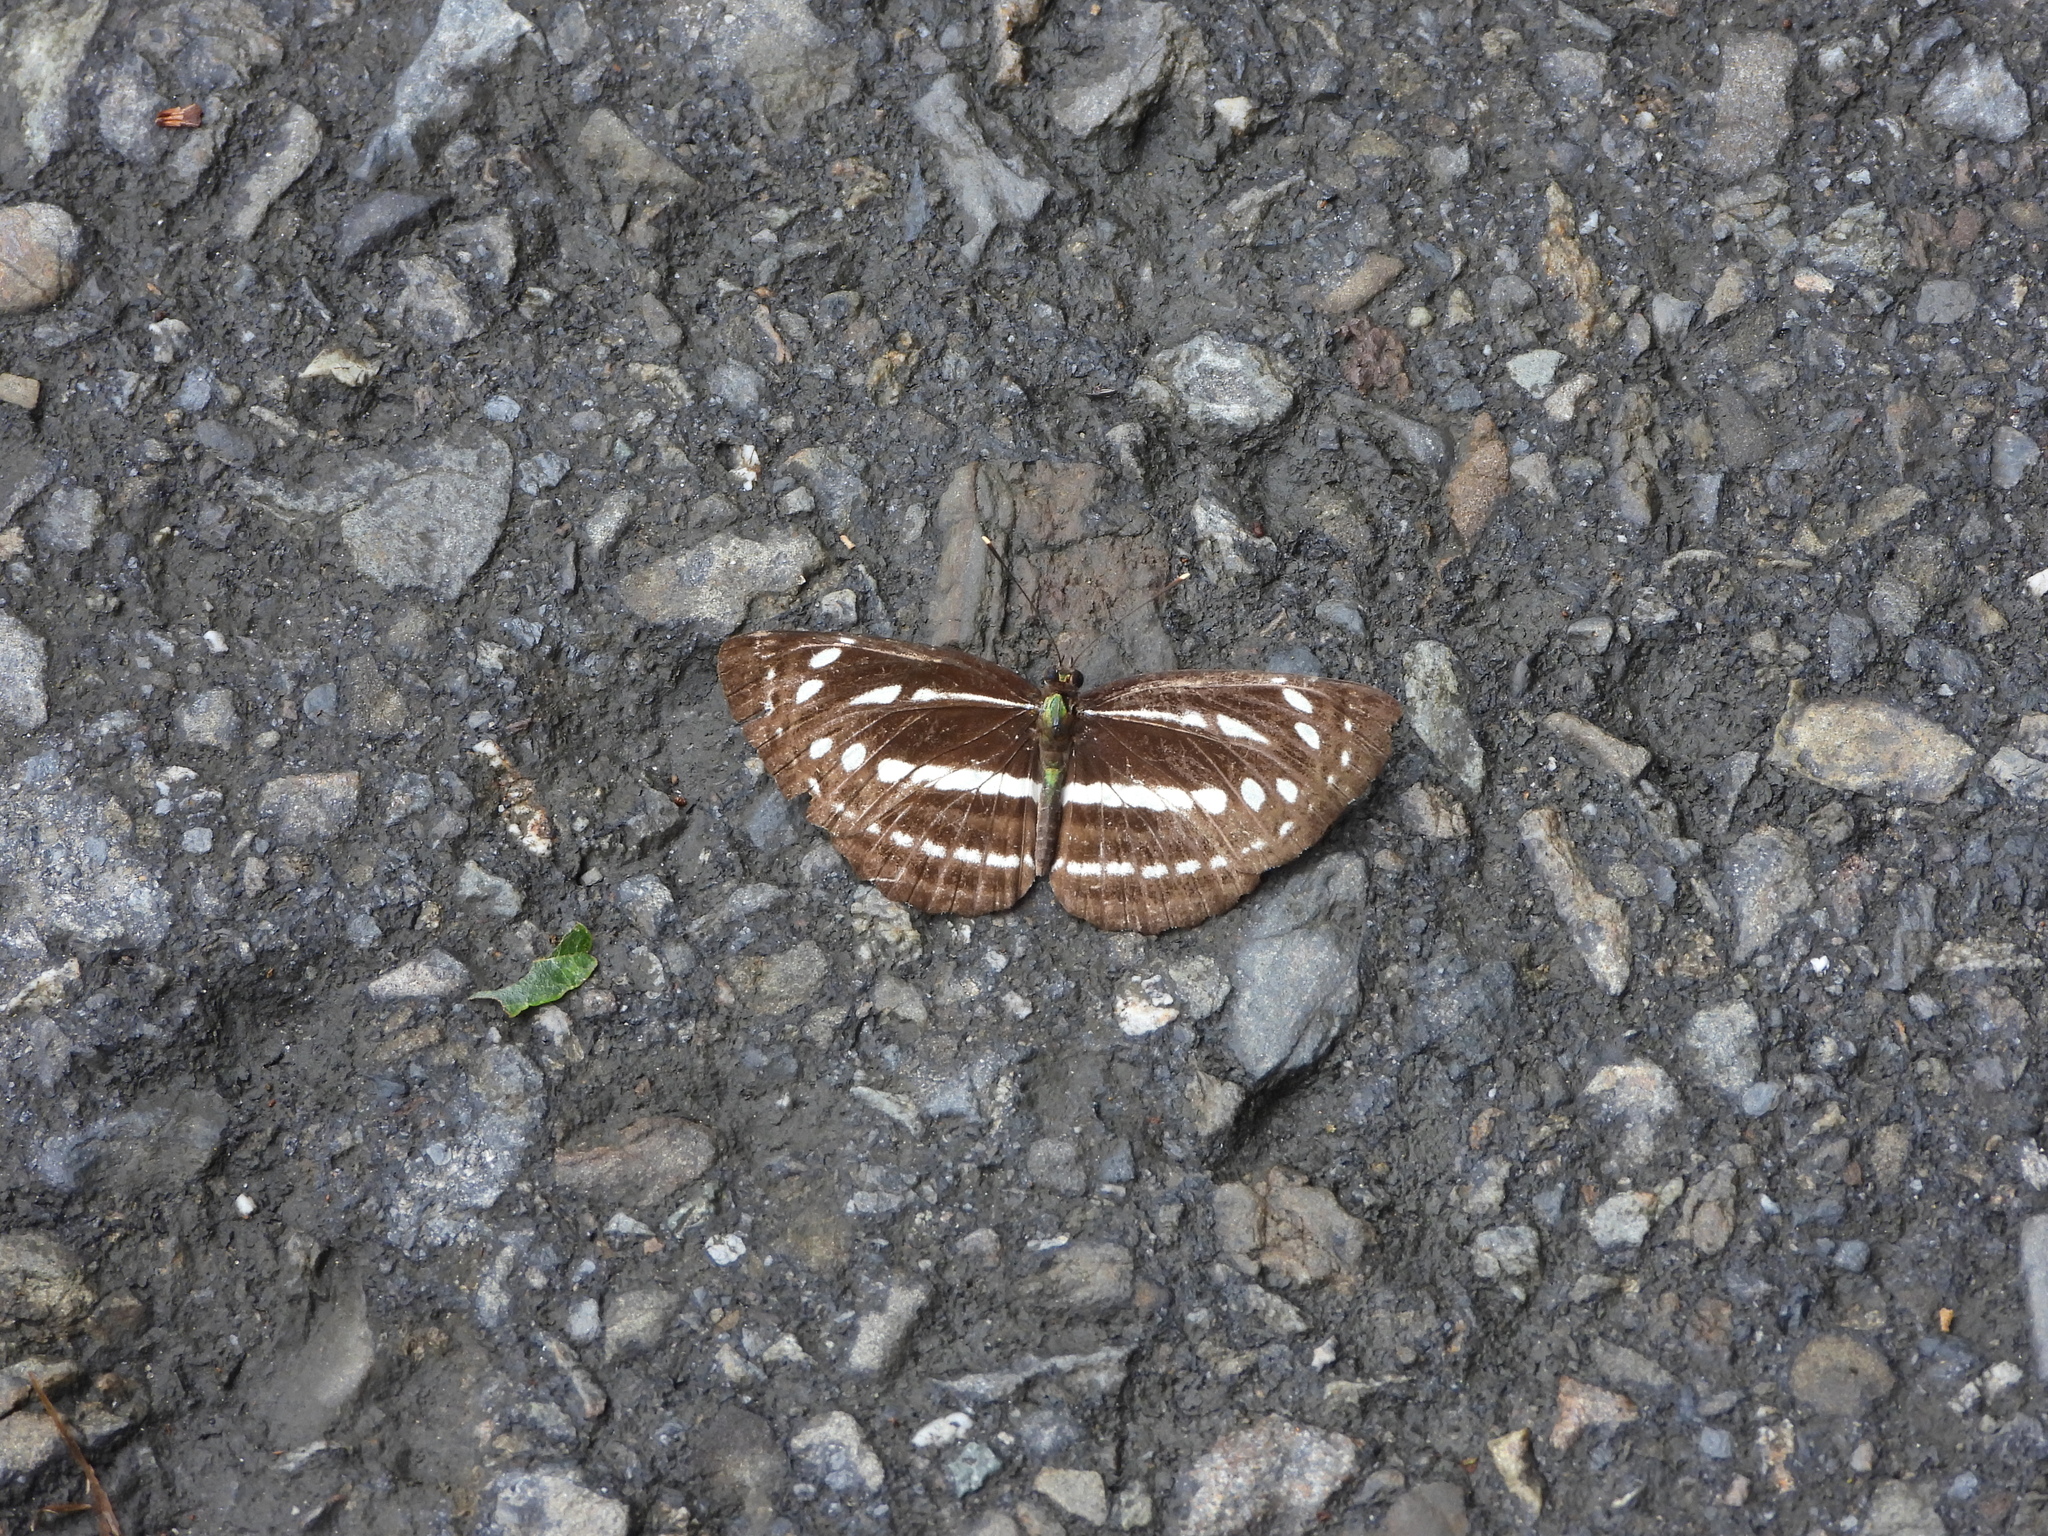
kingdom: Animalia
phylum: Arthropoda
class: Insecta
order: Lepidoptera
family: Nymphalidae
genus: Neptis
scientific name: Neptis nata
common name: Sullied brown sailer
